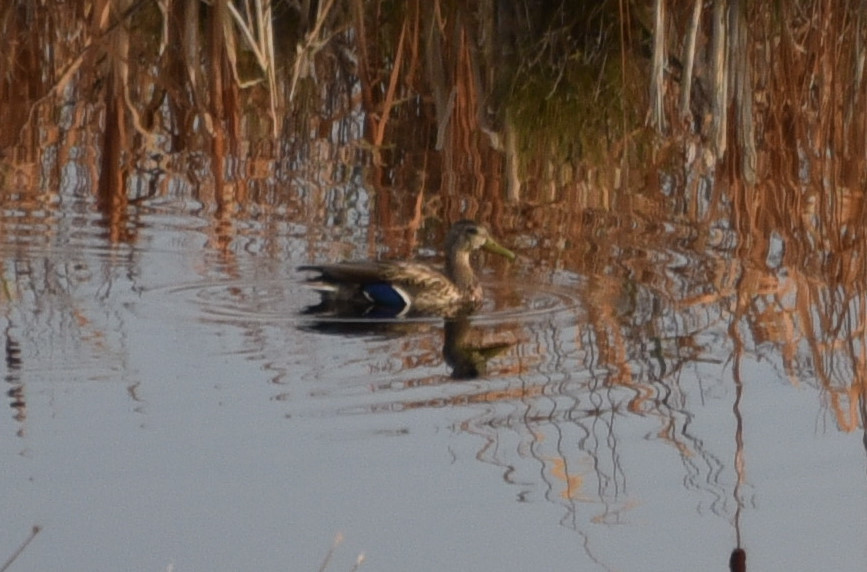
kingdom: Animalia
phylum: Chordata
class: Aves
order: Anseriformes
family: Anatidae
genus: Anas
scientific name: Anas platyrhynchos
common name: Mallard
